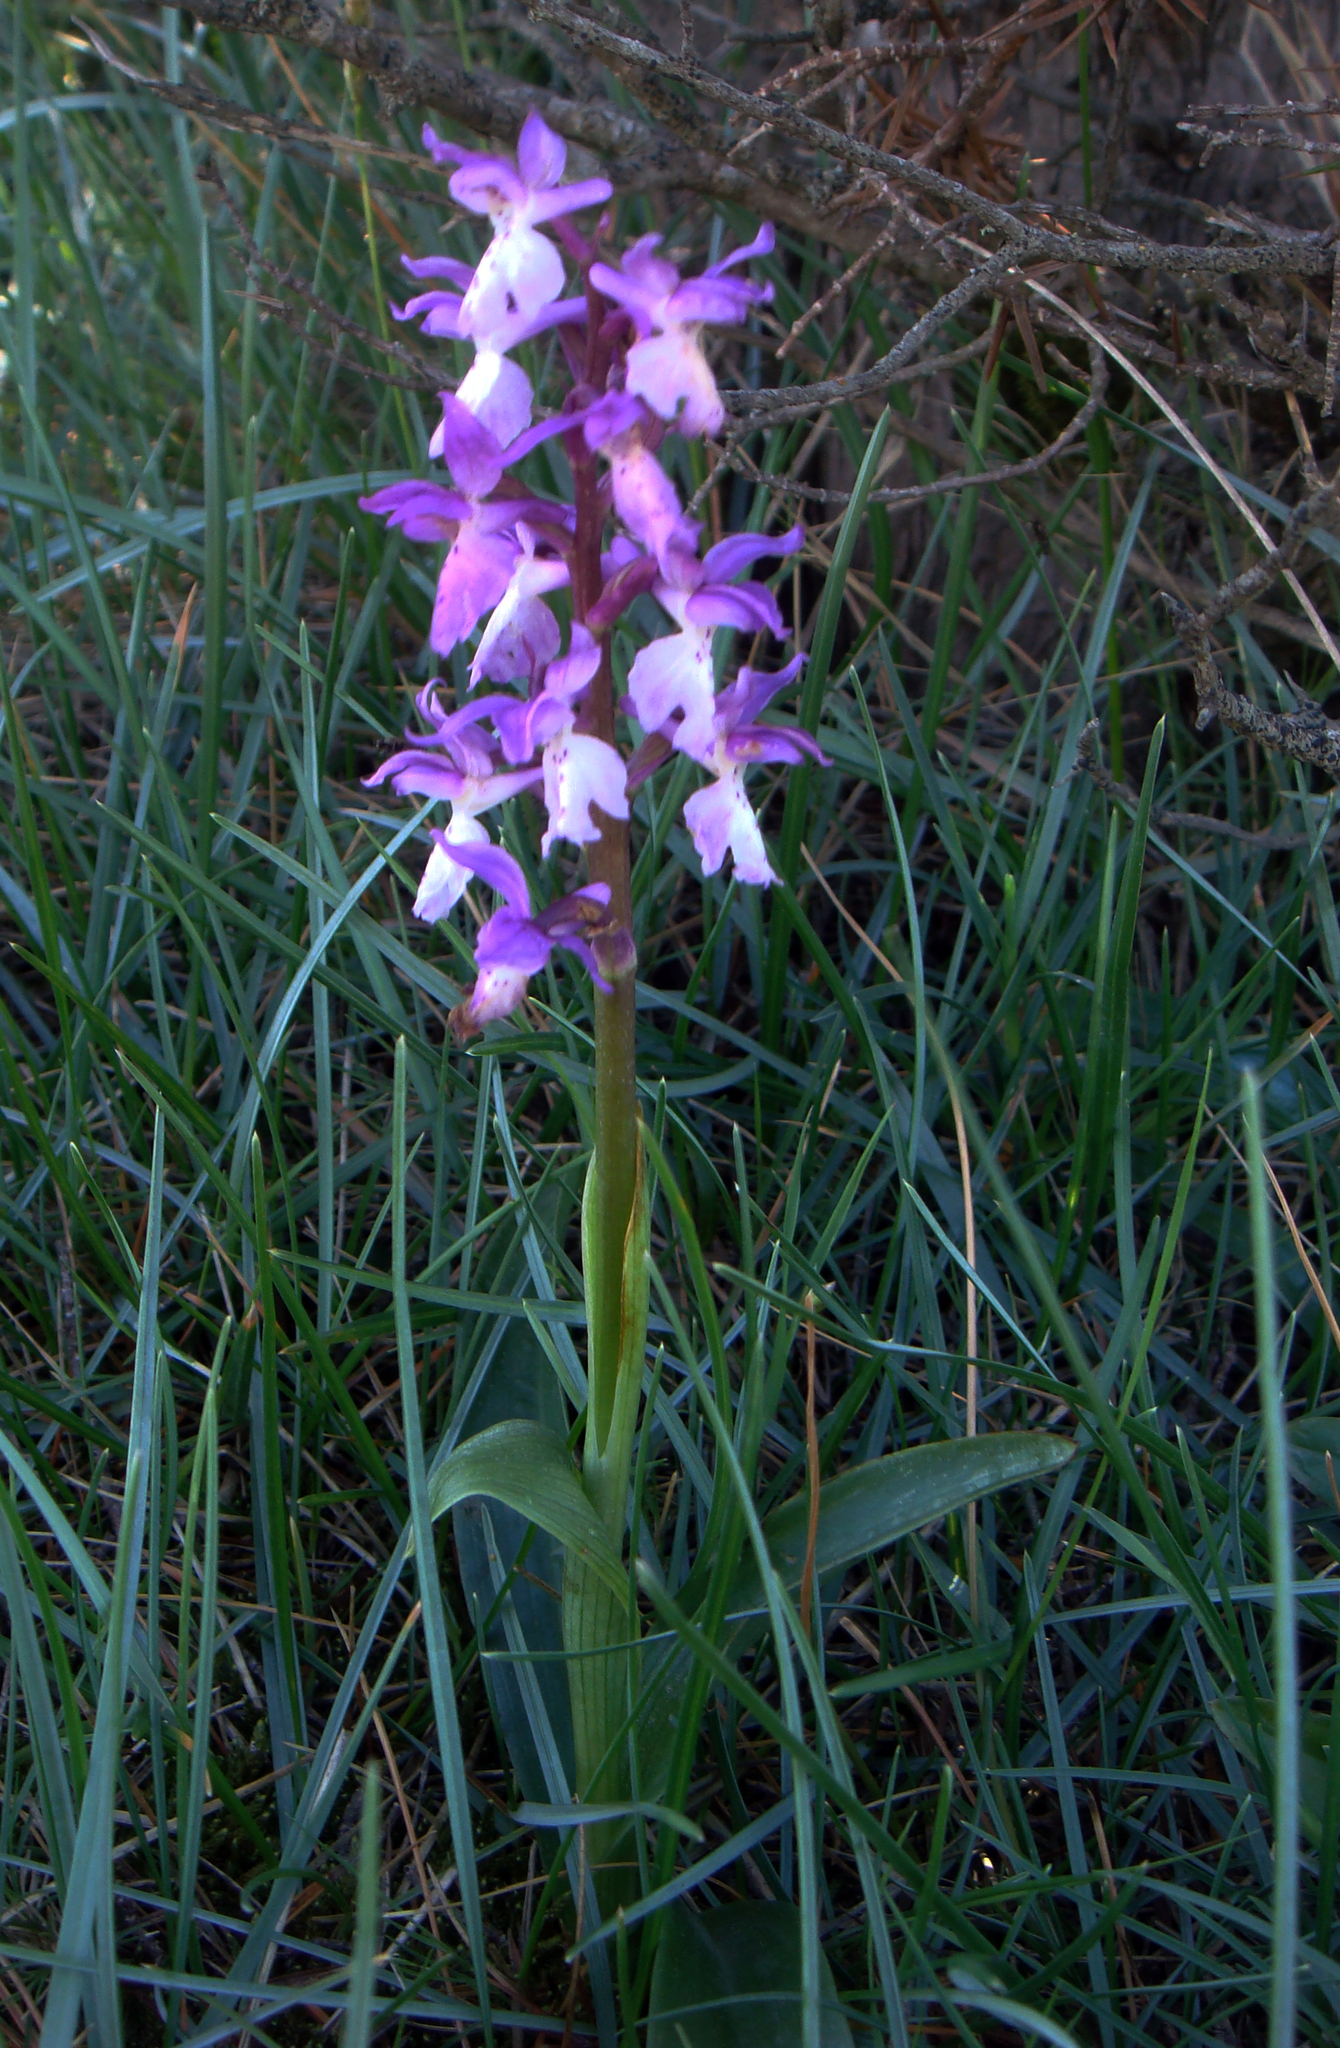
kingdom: Plantae
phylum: Tracheophyta
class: Liliopsida
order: Asparagales
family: Orchidaceae
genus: Orchis
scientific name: Orchis mascula
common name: Early-purple orchid
